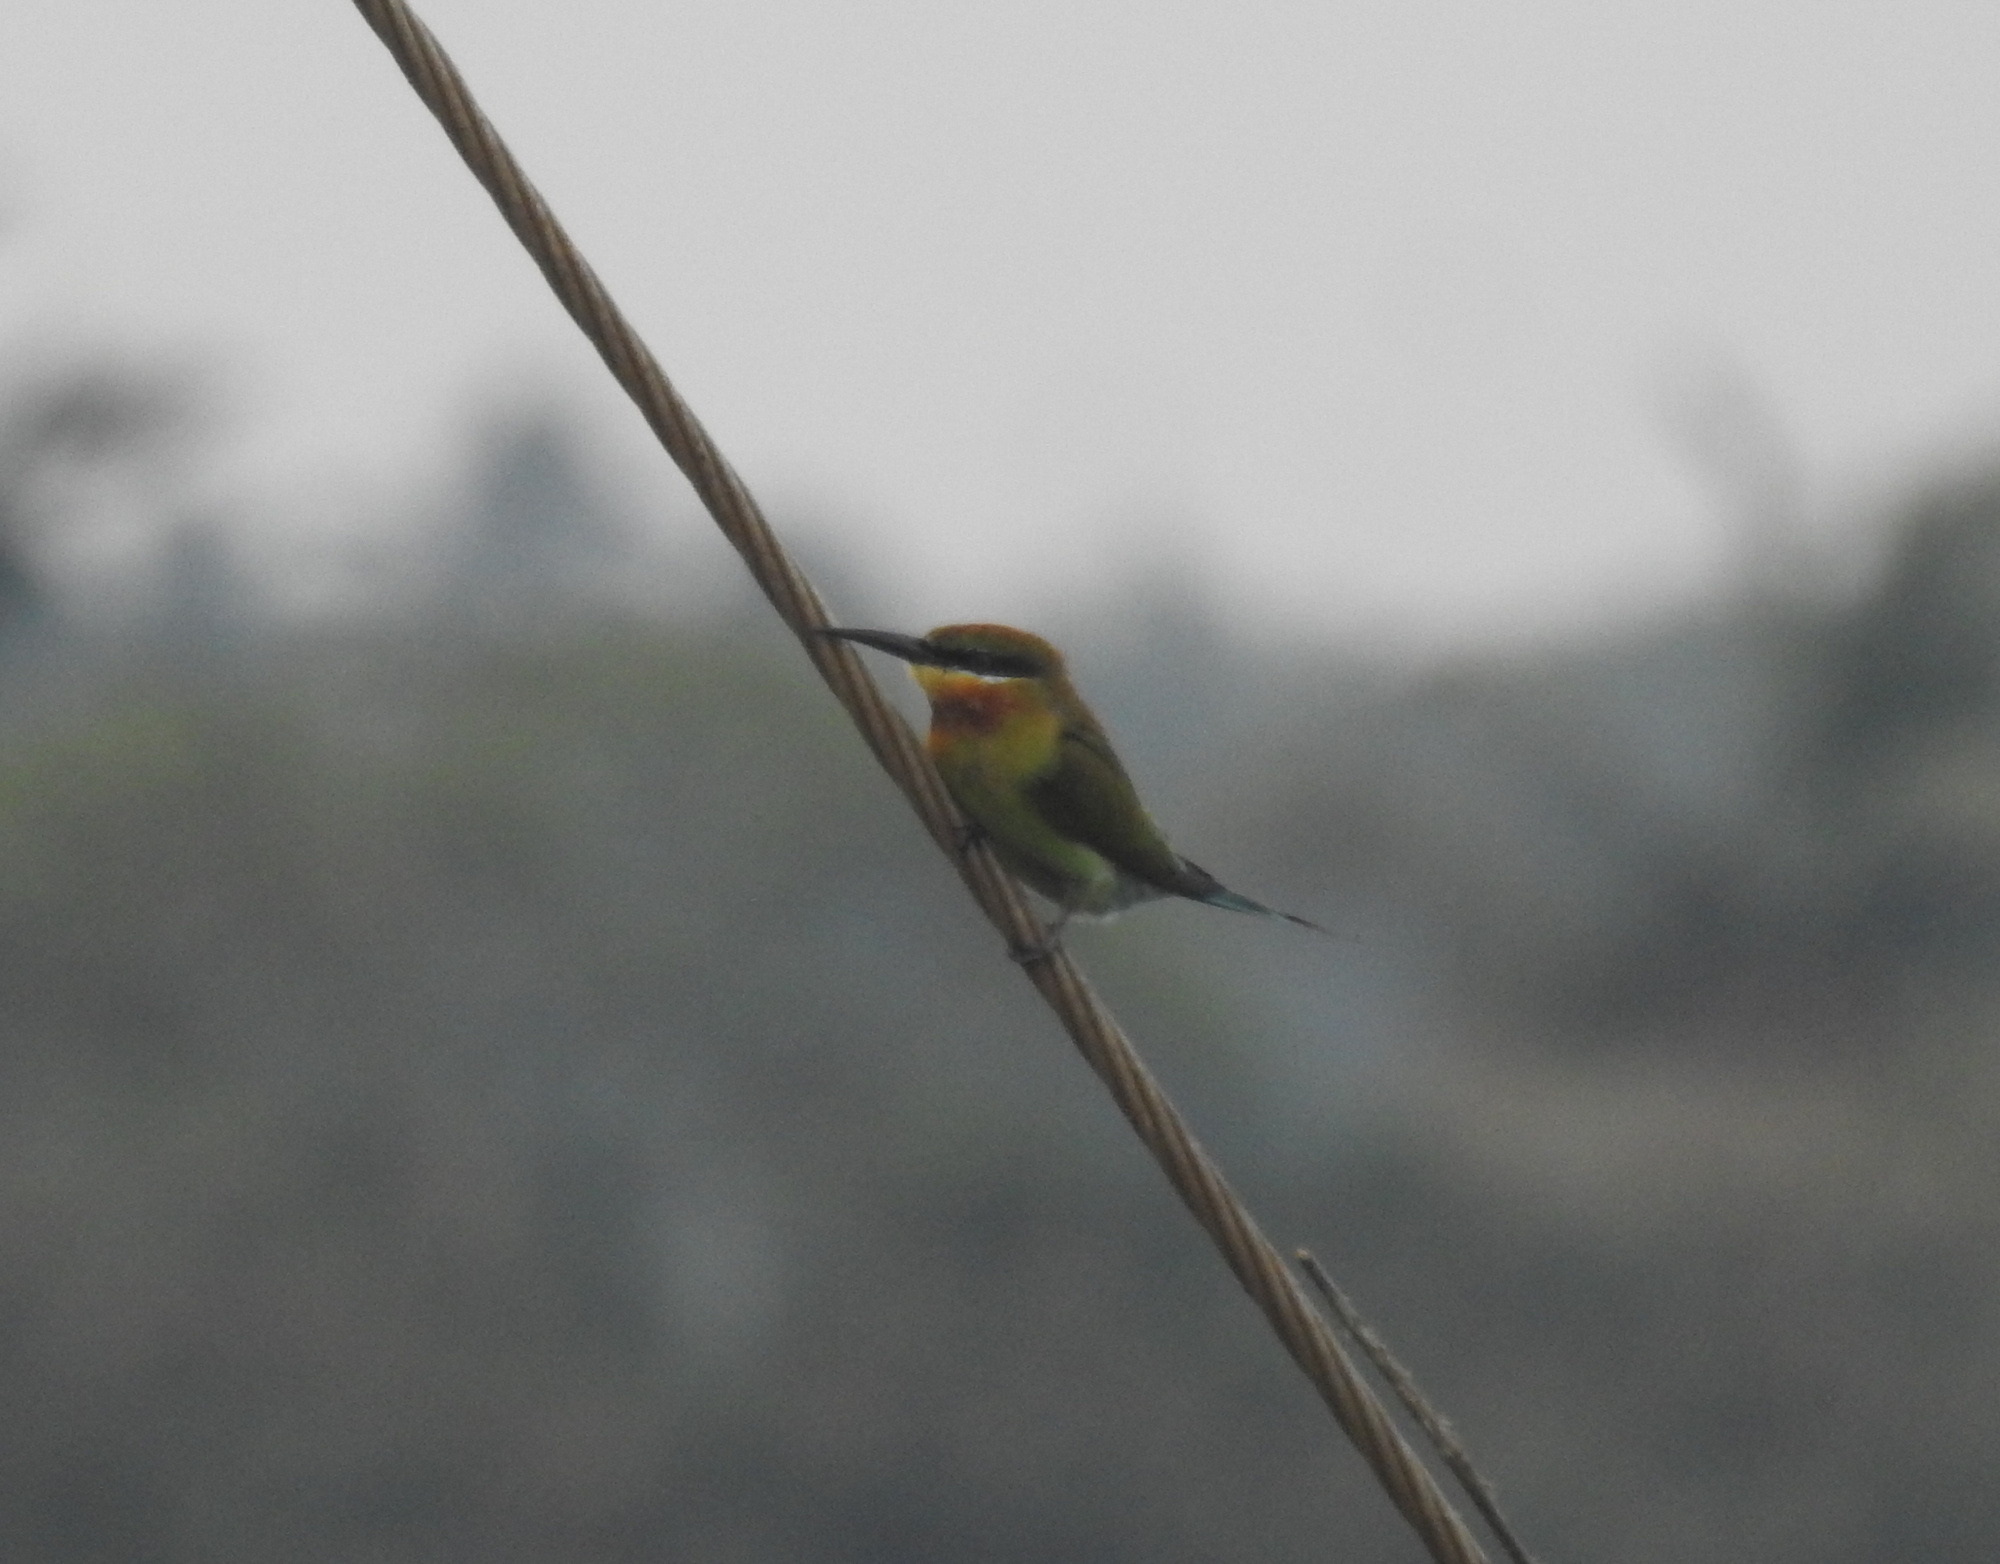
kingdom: Animalia
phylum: Chordata
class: Aves
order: Coraciiformes
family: Meropidae
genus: Merops
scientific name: Merops philippinus
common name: Blue-tailed bee-eater
